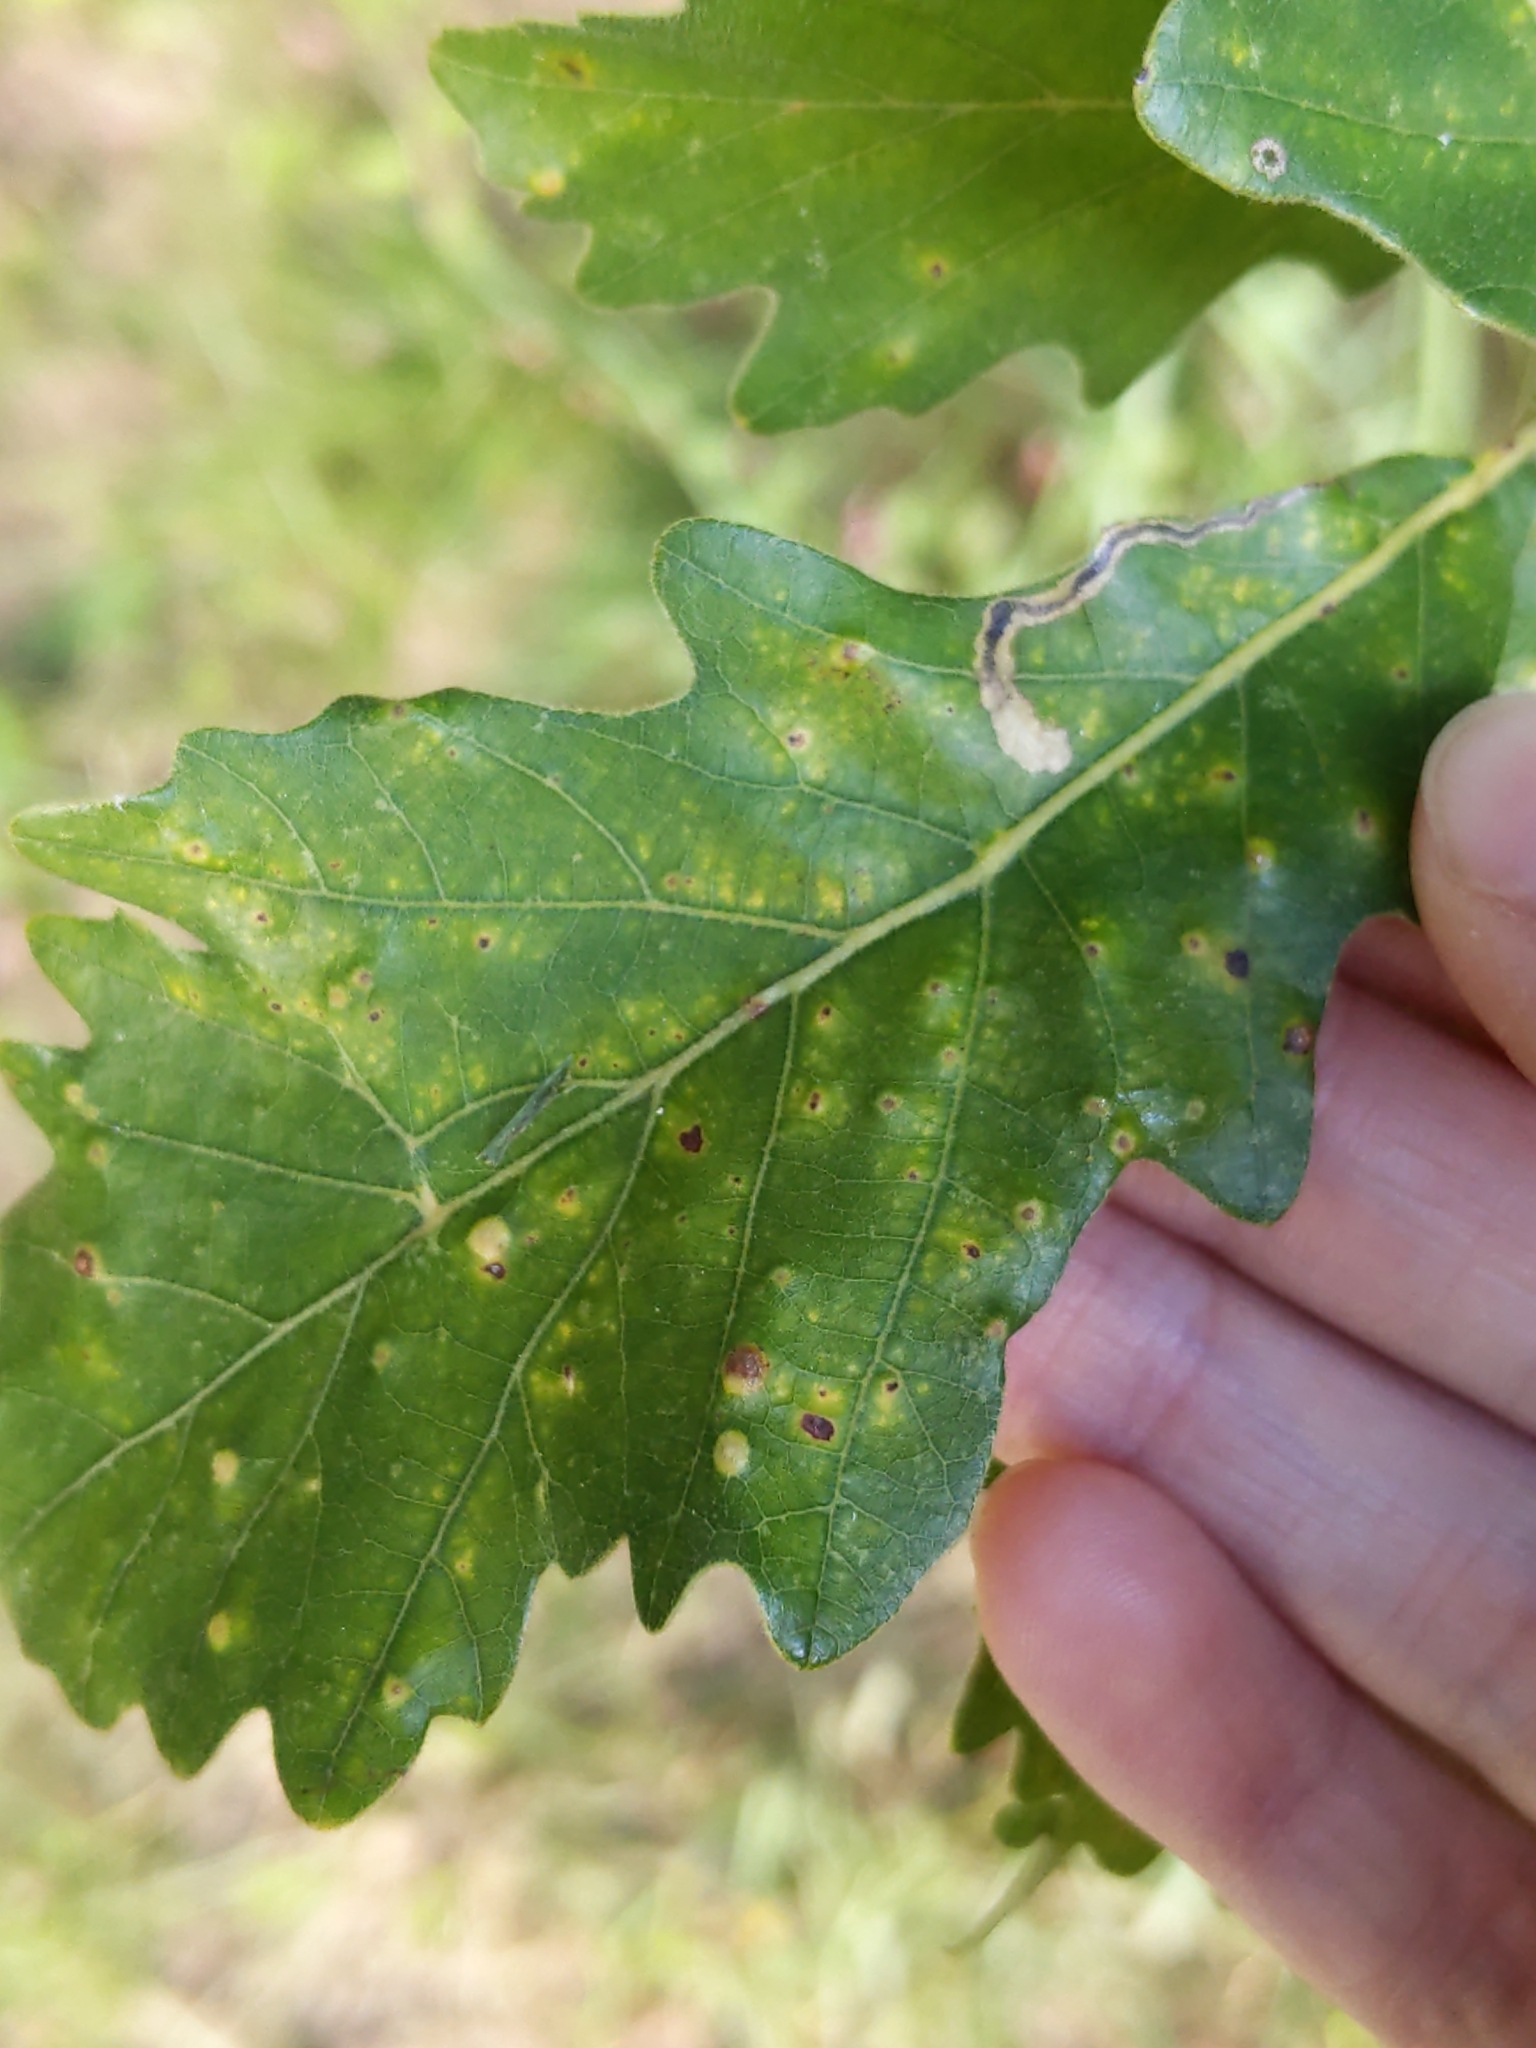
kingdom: Animalia
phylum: Arthropoda
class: Insecta
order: Hymenoptera
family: Cynipidae
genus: Neuroterus
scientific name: Neuroterus quercusverrucarum
